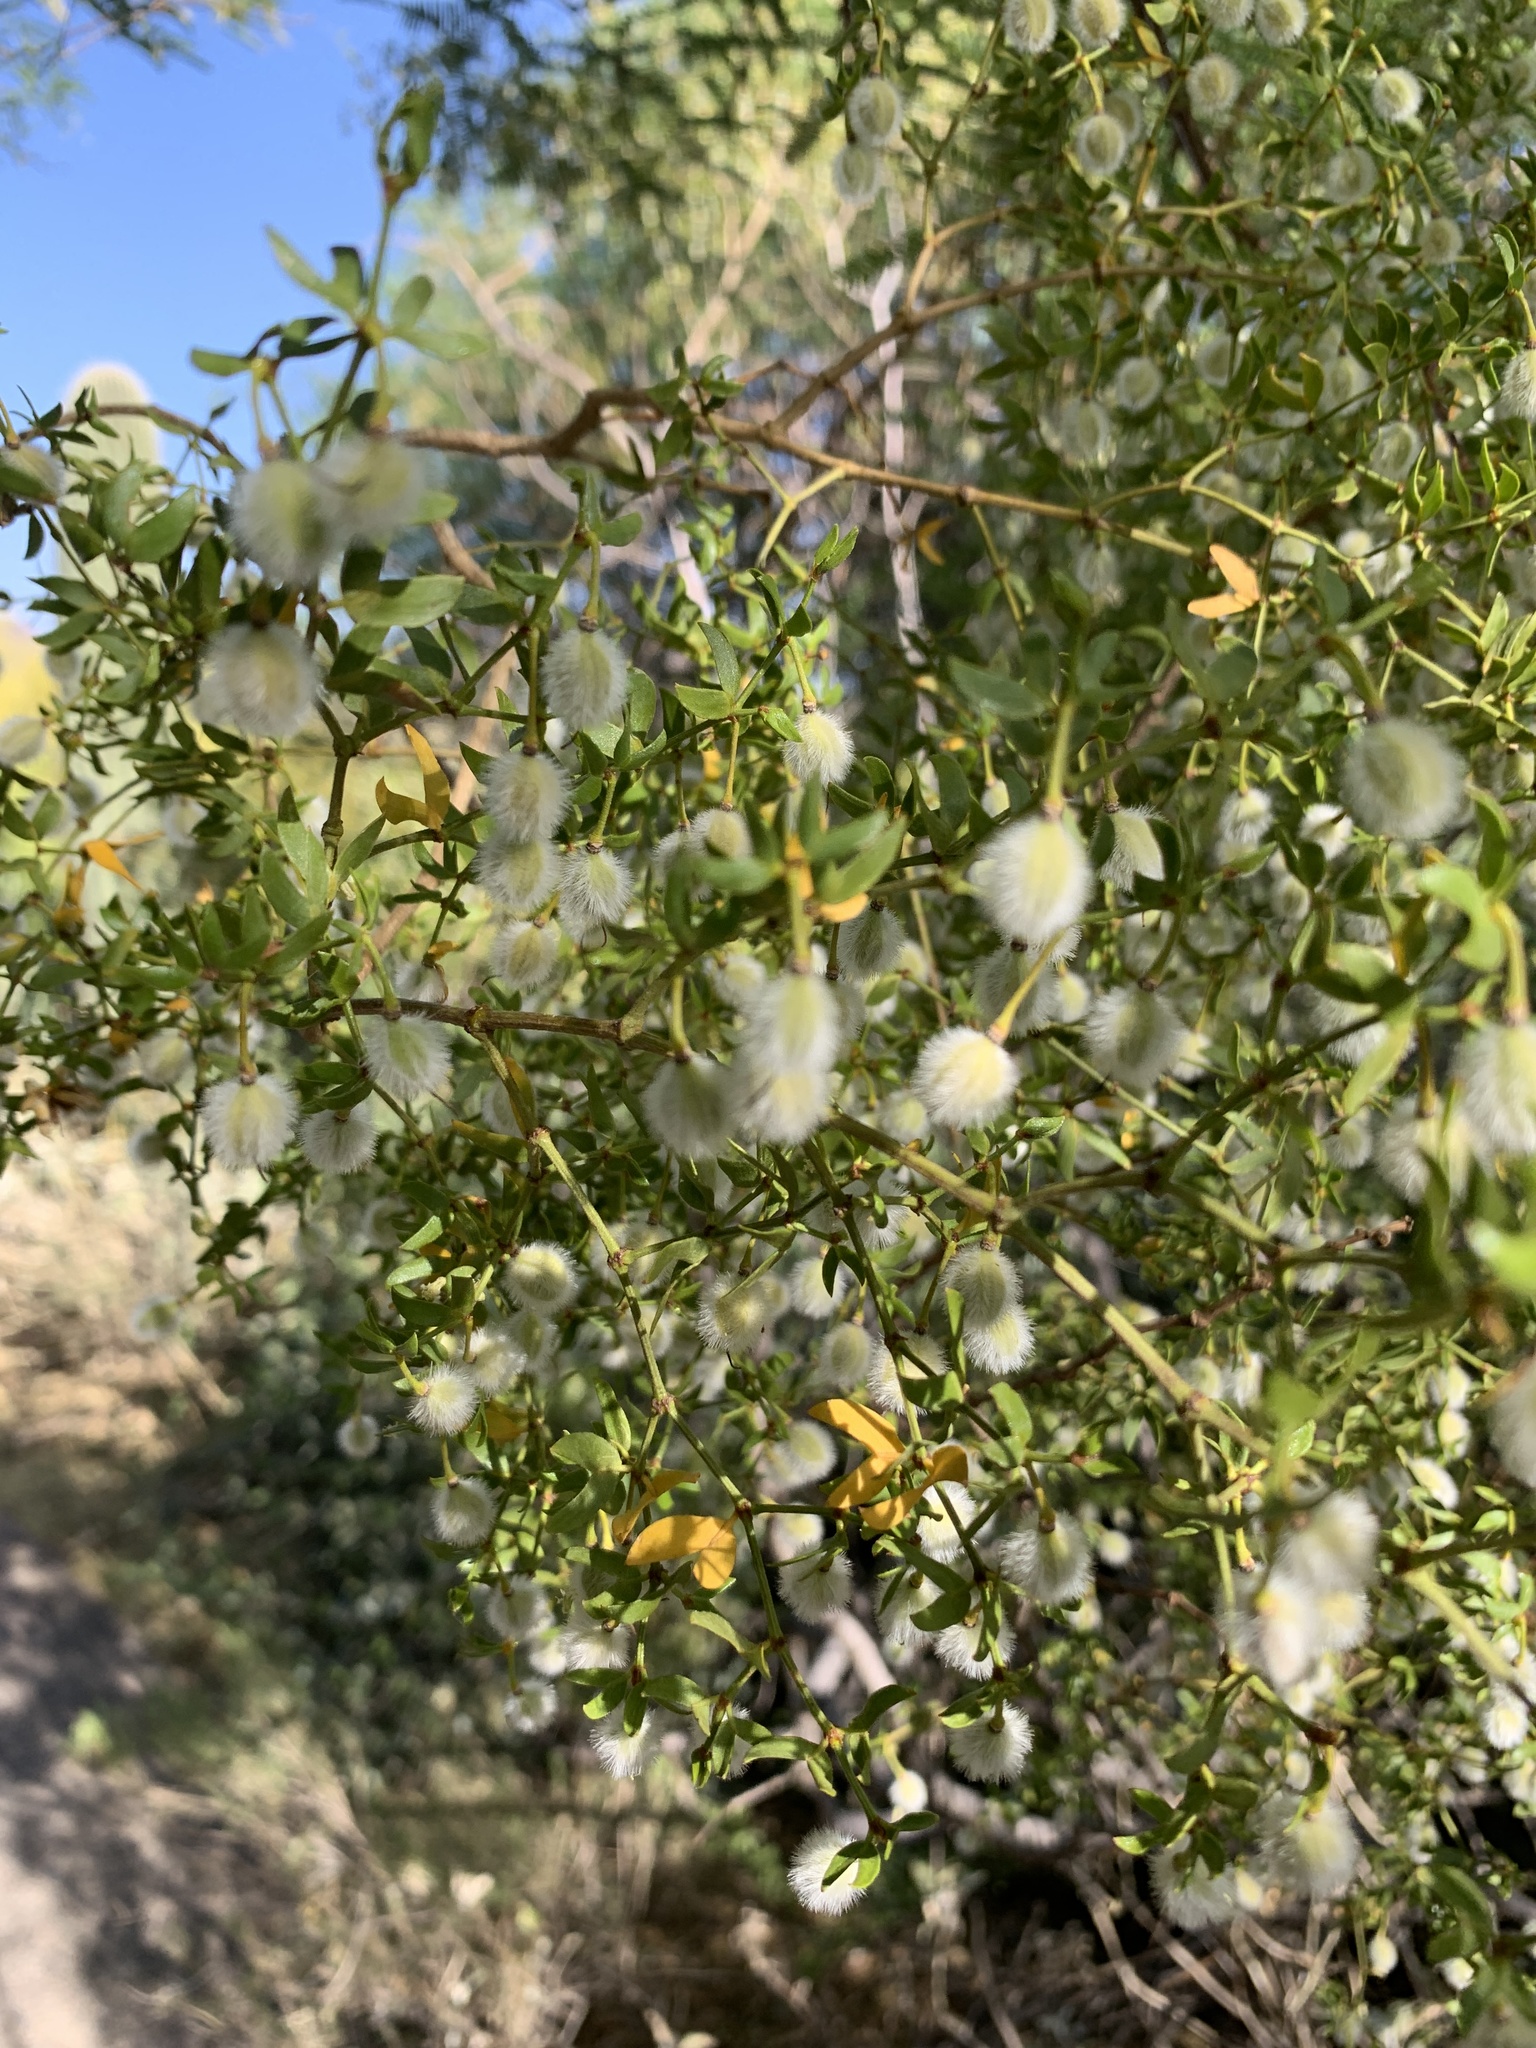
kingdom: Plantae
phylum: Tracheophyta
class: Magnoliopsida
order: Zygophyllales
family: Zygophyllaceae
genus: Larrea
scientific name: Larrea tridentata
